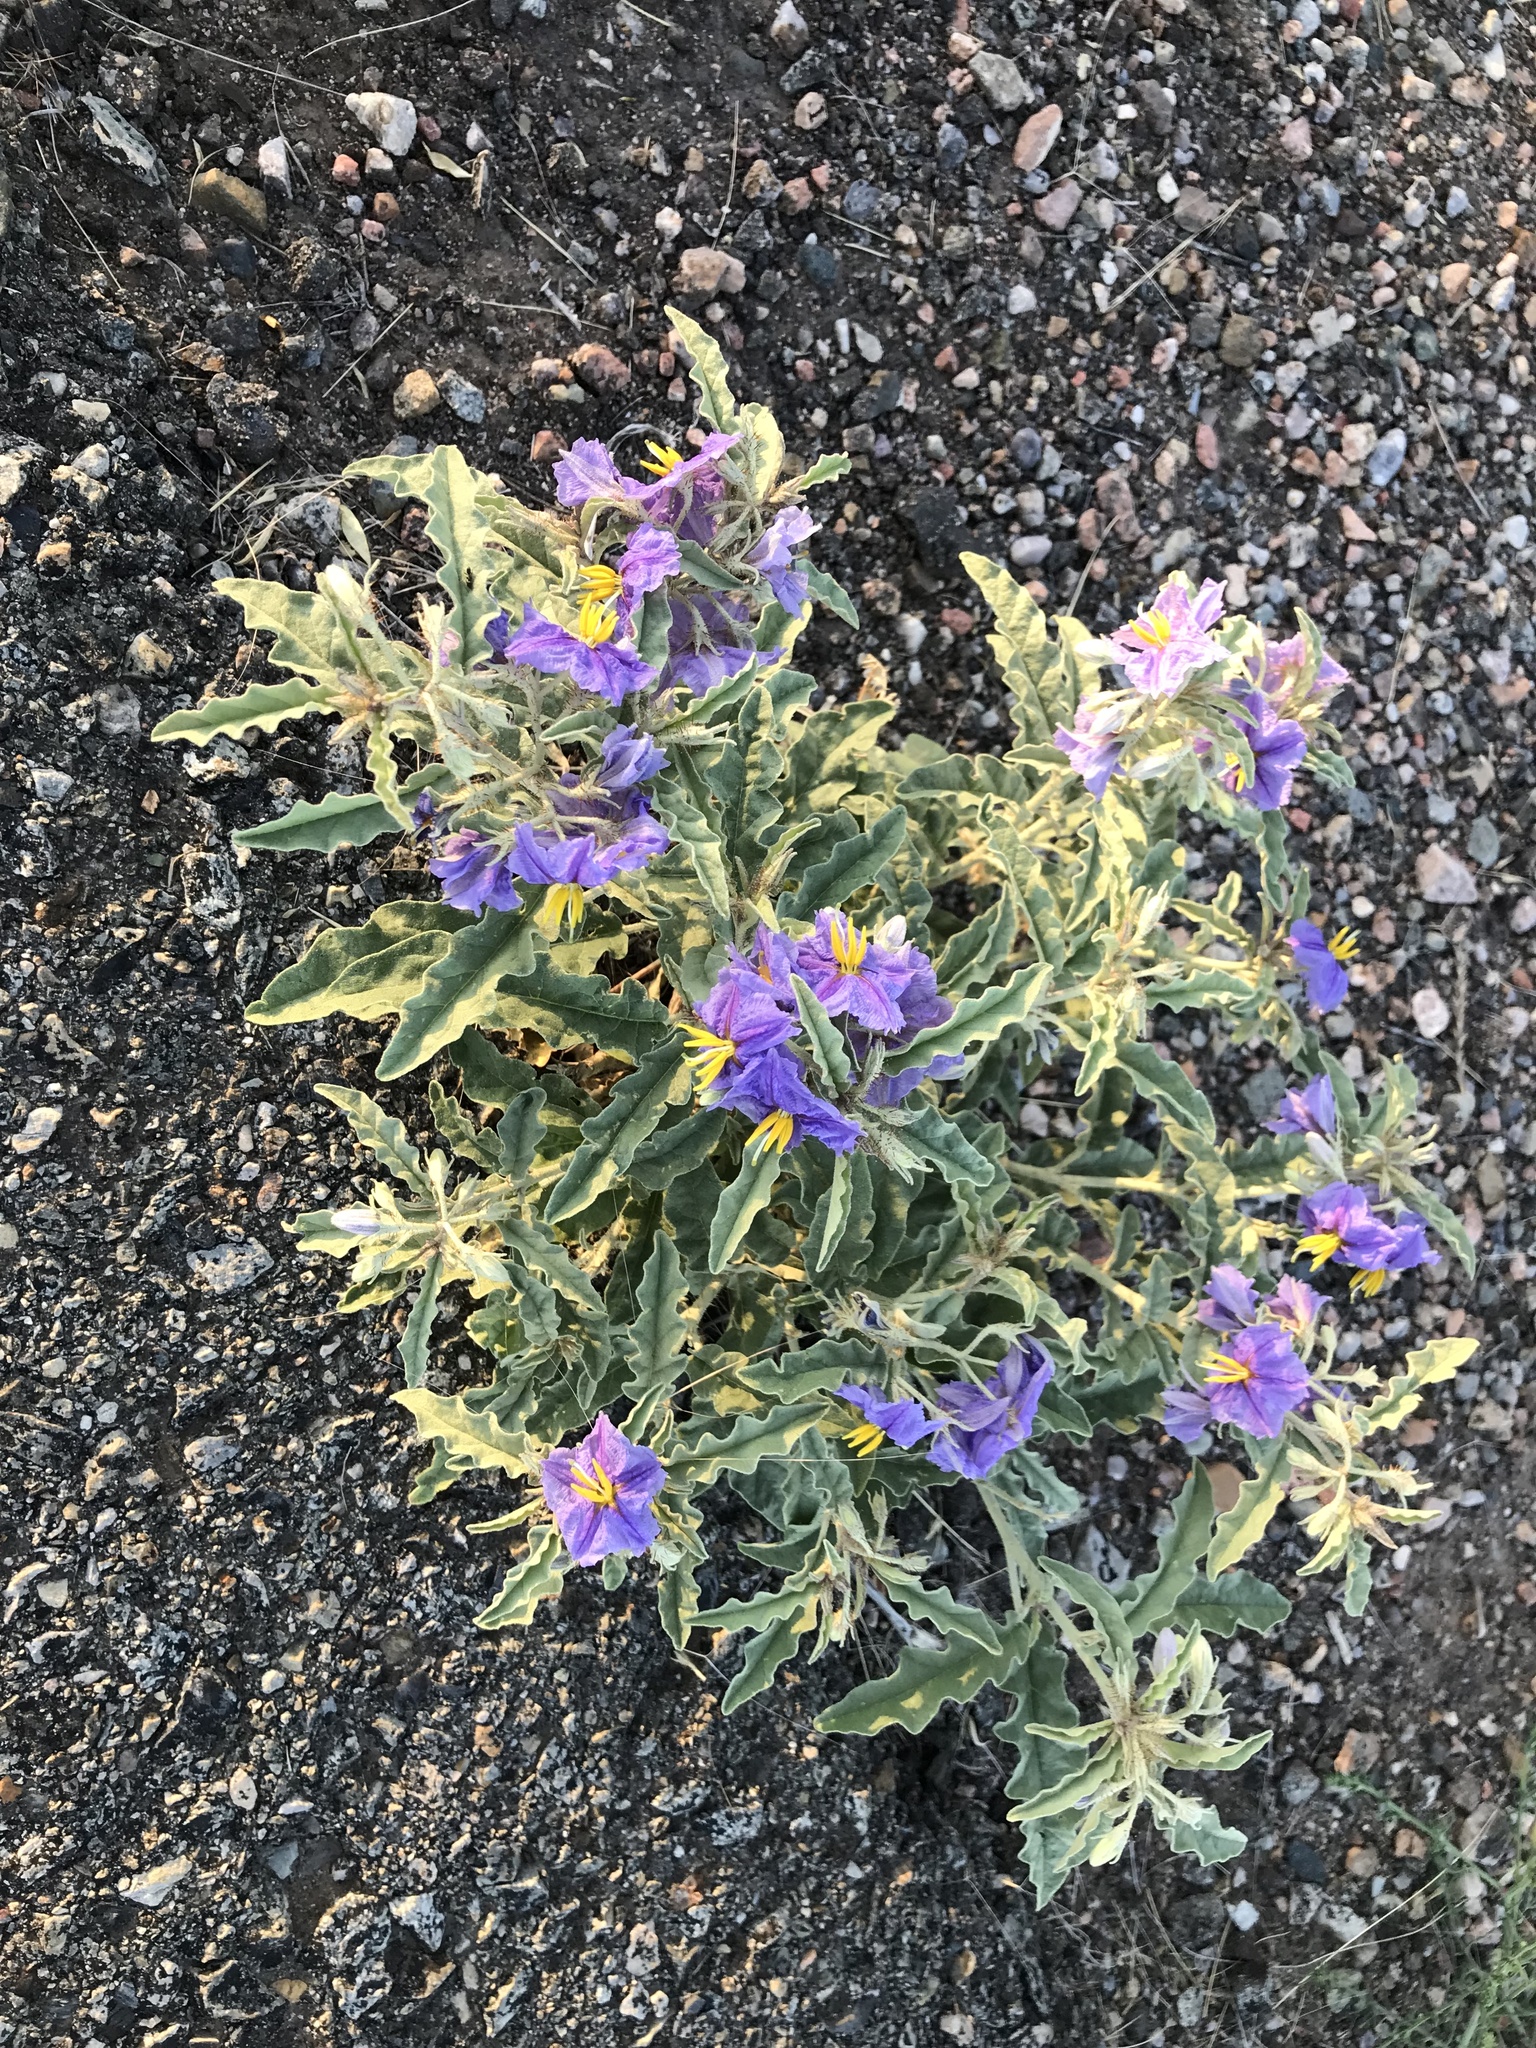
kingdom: Plantae
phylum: Tracheophyta
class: Magnoliopsida
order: Solanales
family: Solanaceae
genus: Solanum
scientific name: Solanum elaeagnifolium
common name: Silverleaf nightshade
